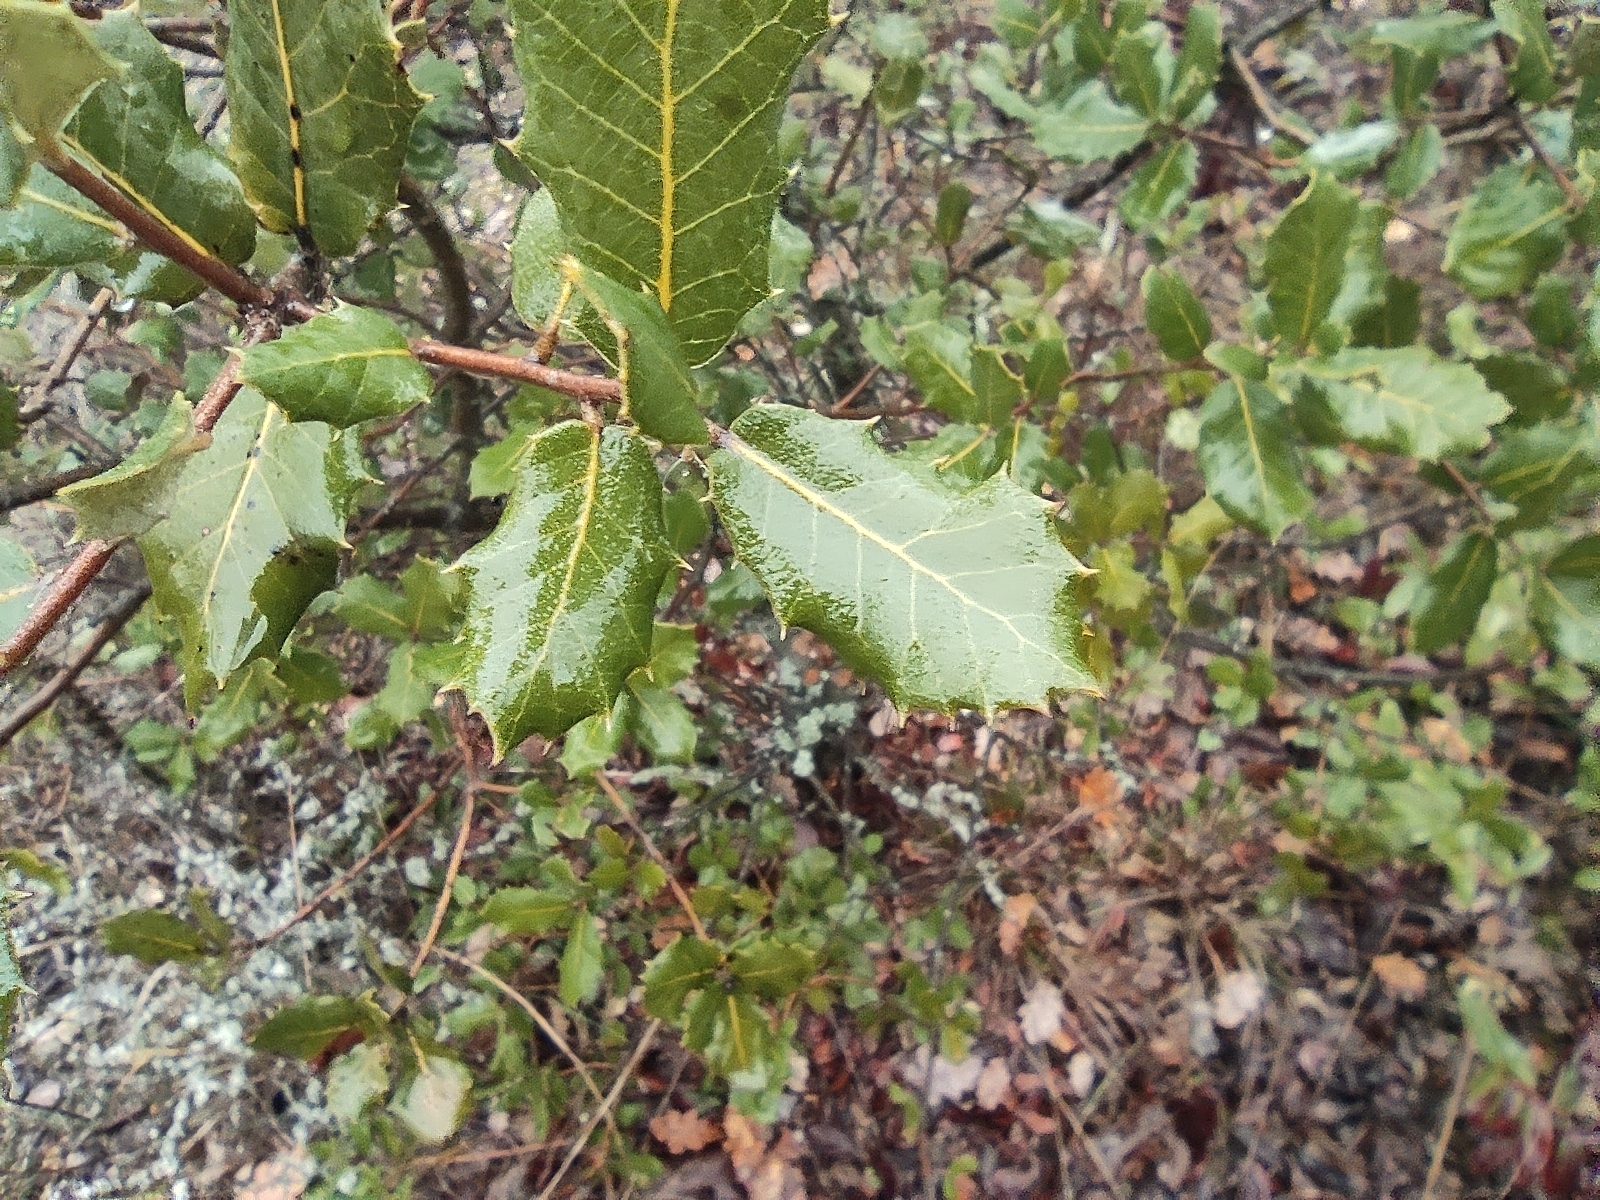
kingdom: Plantae
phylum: Tracheophyta
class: Magnoliopsida
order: Fagales
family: Fagaceae
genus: Quercus
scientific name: Quercus ilex
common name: Evergreen oak
